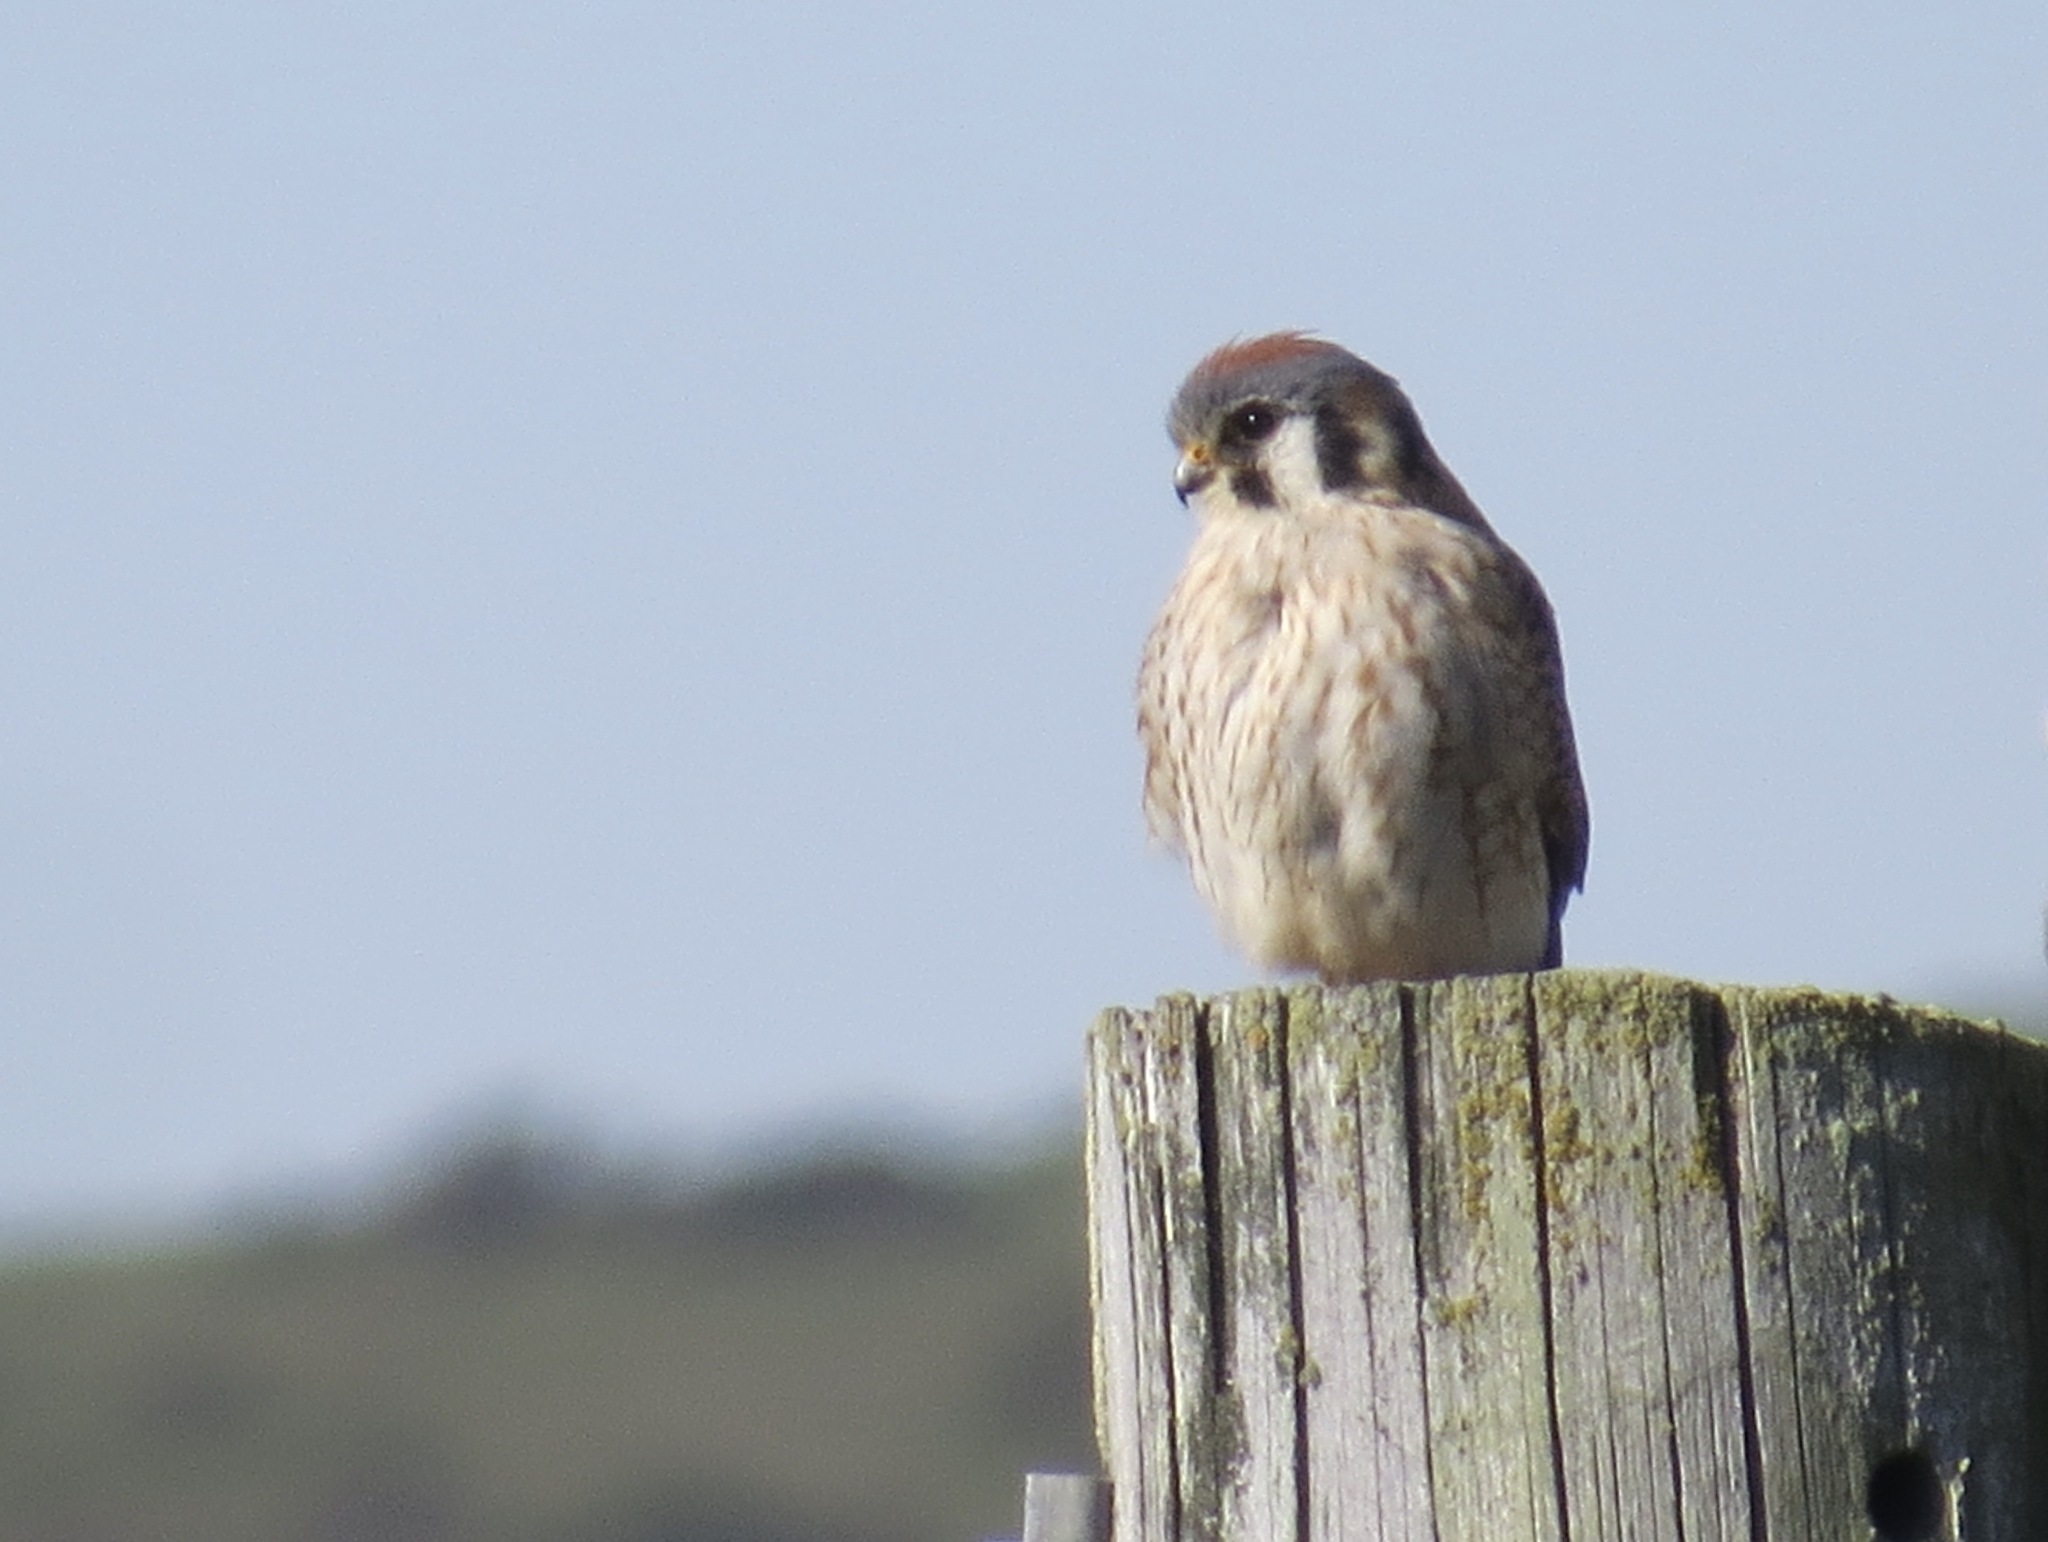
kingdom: Animalia
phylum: Chordata
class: Aves
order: Falconiformes
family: Falconidae
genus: Falco
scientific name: Falco sparverius
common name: American kestrel
